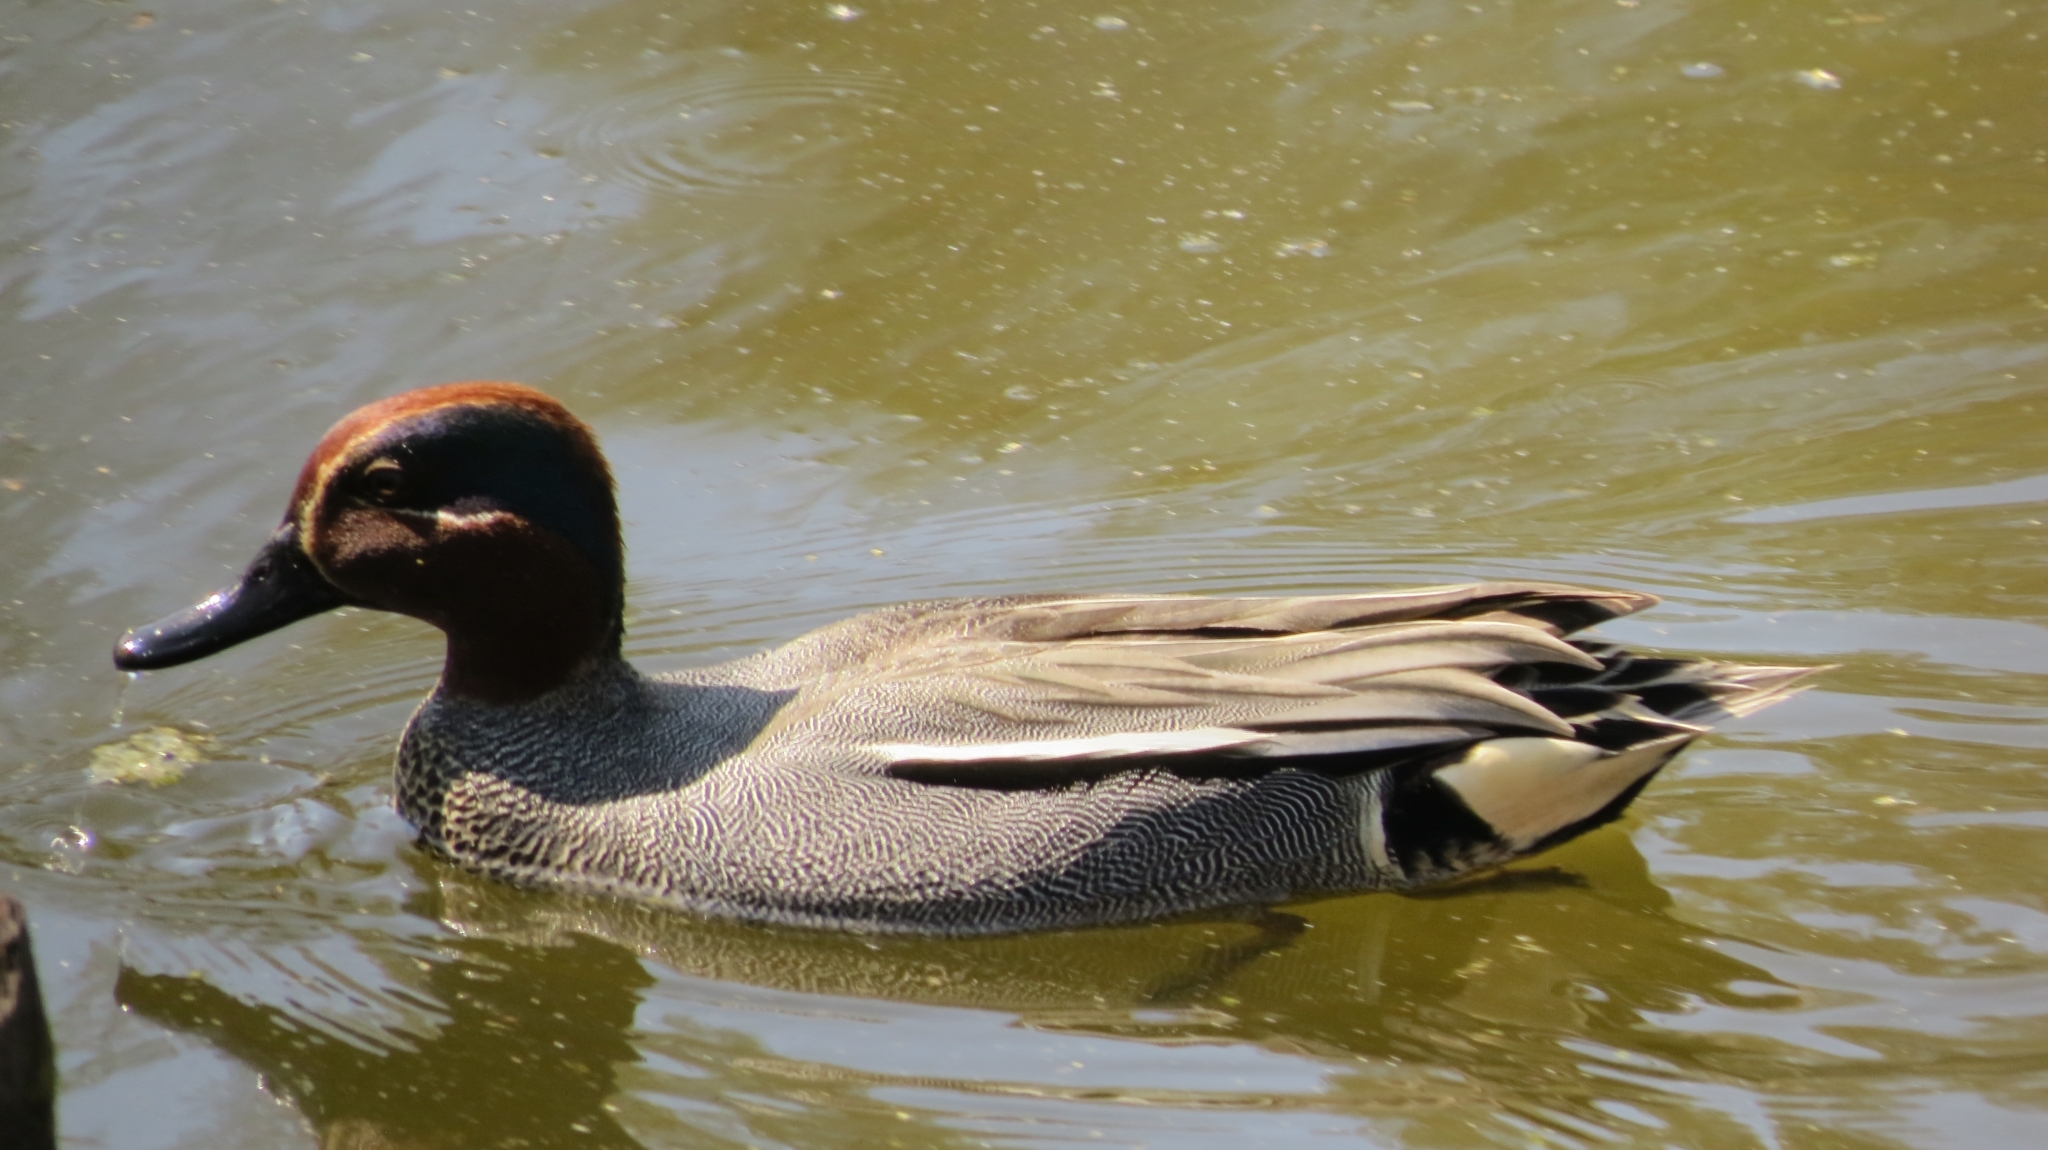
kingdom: Animalia
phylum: Chordata
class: Aves
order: Anseriformes
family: Anatidae
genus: Anas
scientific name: Anas crecca
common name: Eurasian teal
